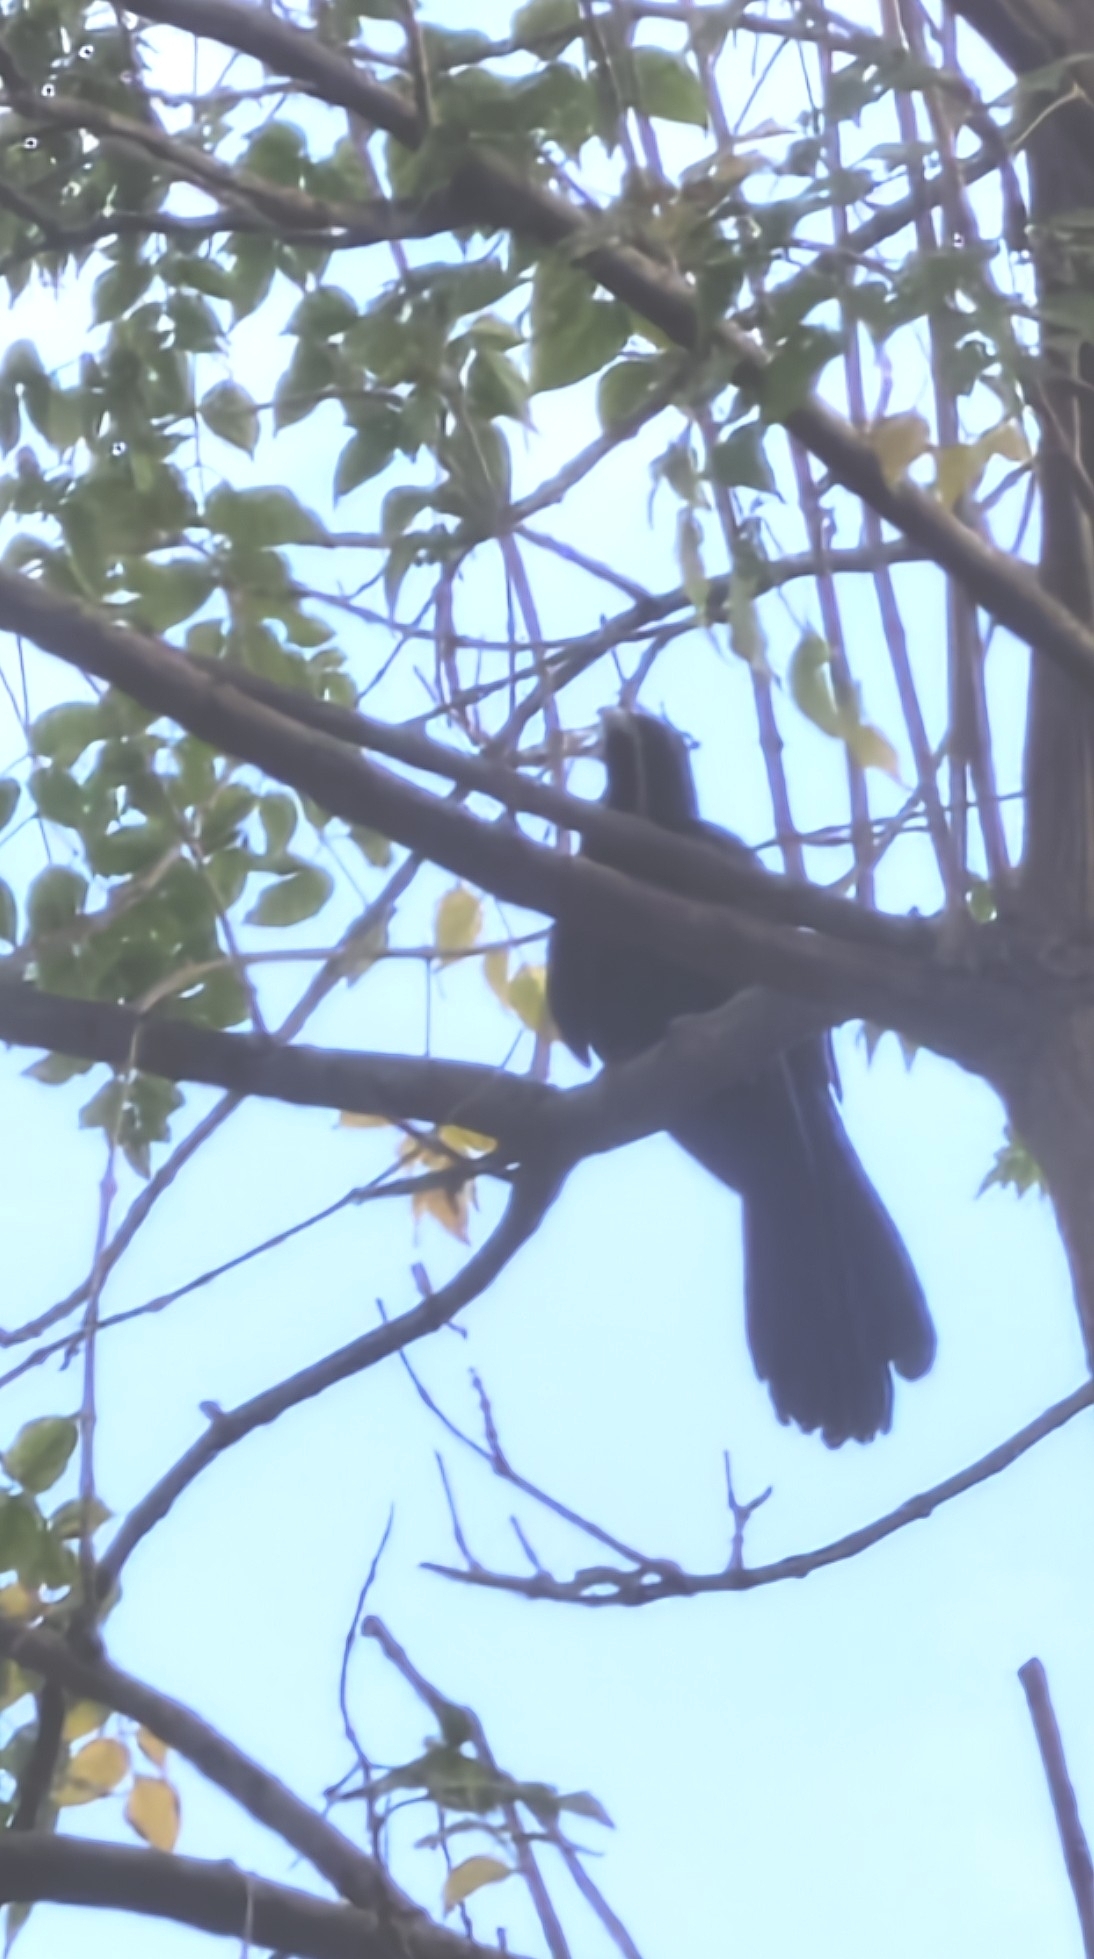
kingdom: Animalia
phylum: Chordata
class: Aves
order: Cuculiformes
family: Cuculidae
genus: Eudynamys
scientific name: Eudynamys scolopaceus
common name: Asian koel
